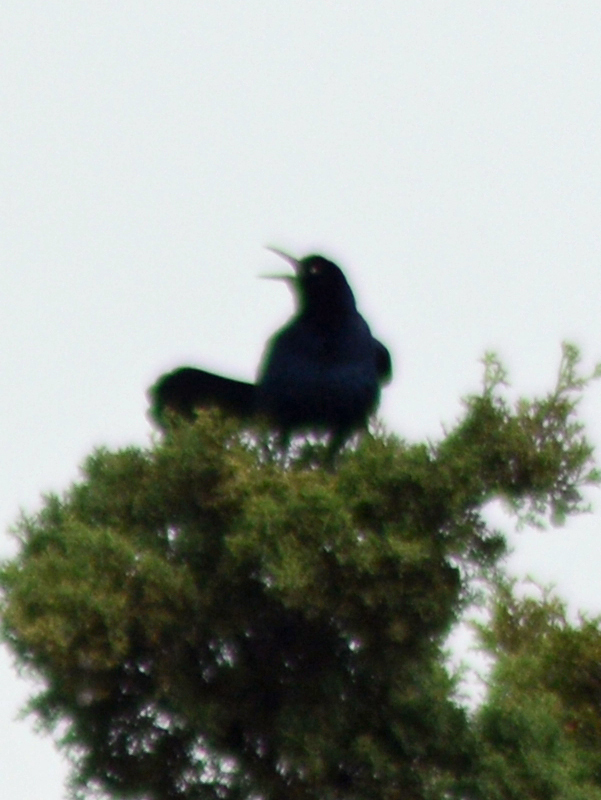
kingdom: Animalia
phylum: Chordata
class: Aves
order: Passeriformes
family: Icteridae
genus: Quiscalus
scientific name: Quiscalus mexicanus
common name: Great-tailed grackle
